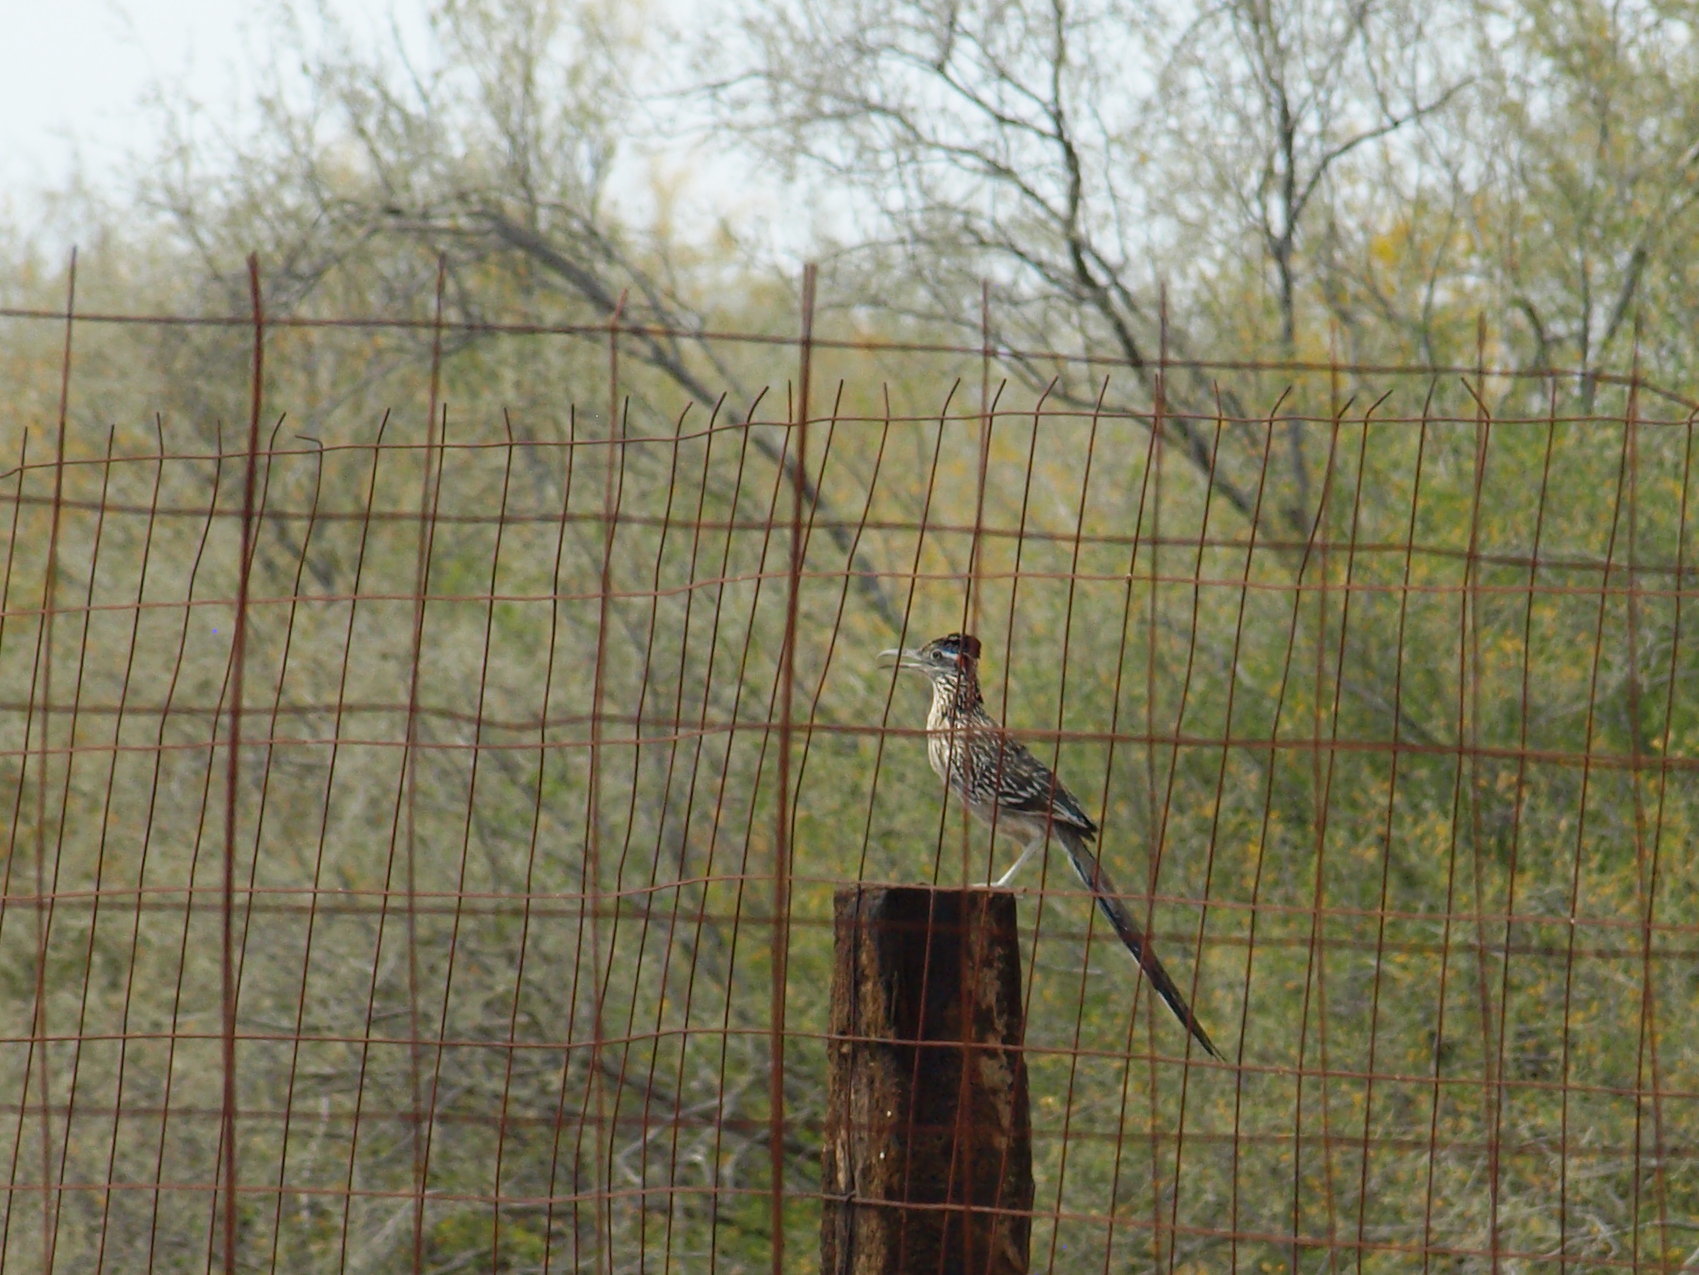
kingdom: Animalia
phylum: Chordata
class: Aves
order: Cuculiformes
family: Cuculidae
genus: Geococcyx
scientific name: Geococcyx californianus
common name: Greater roadrunner
